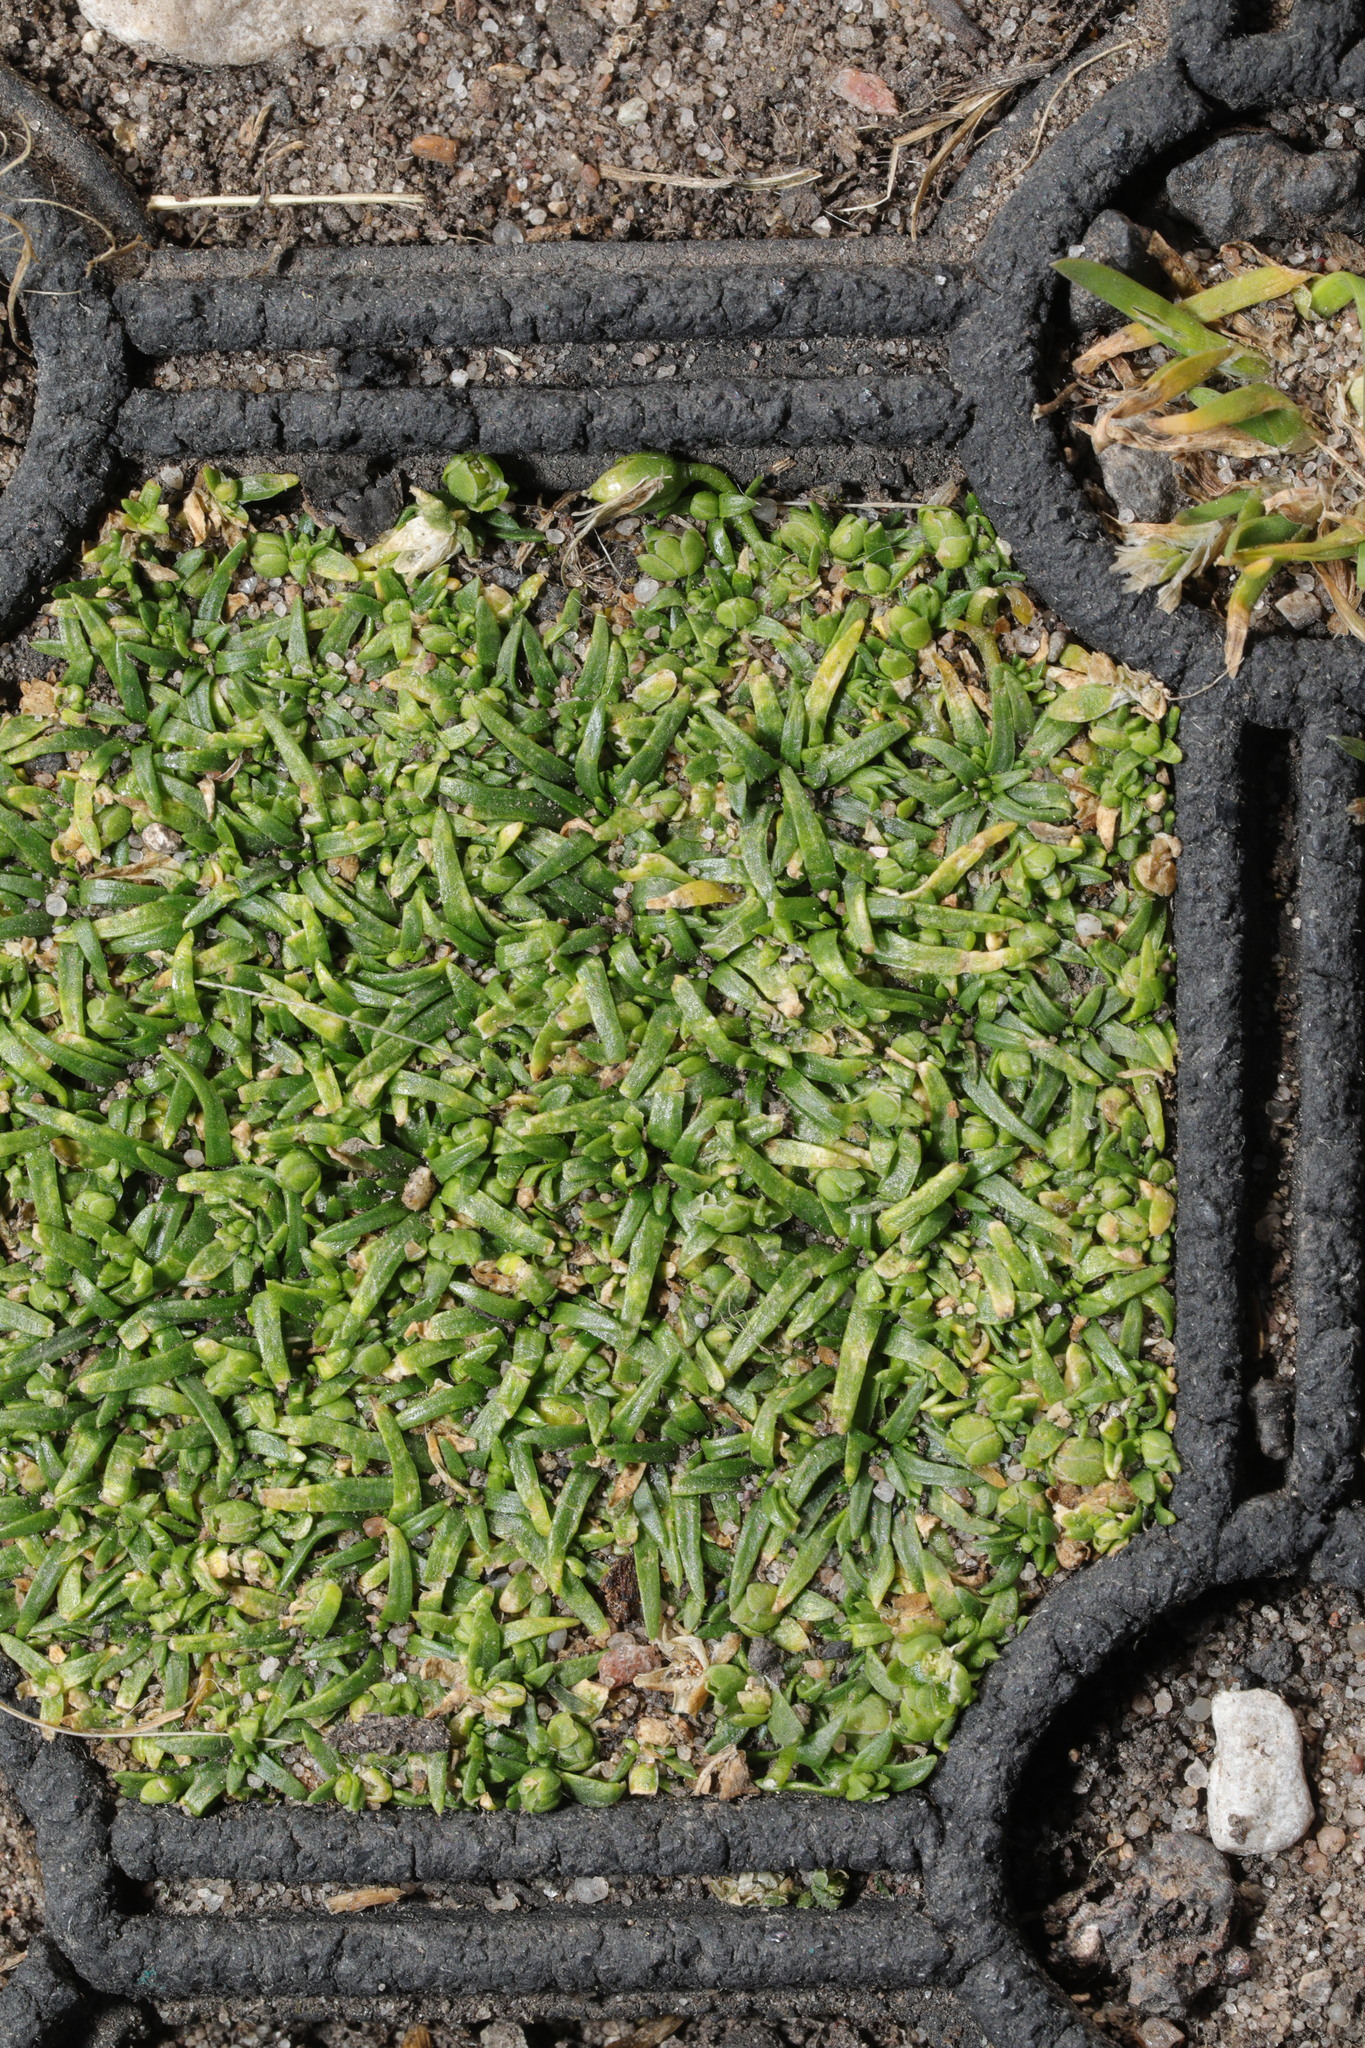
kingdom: Plantae
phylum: Tracheophyta
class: Magnoliopsida
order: Caryophyllales
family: Caryophyllaceae
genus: Sagina
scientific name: Sagina procumbens
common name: Procumbent pearlwort
